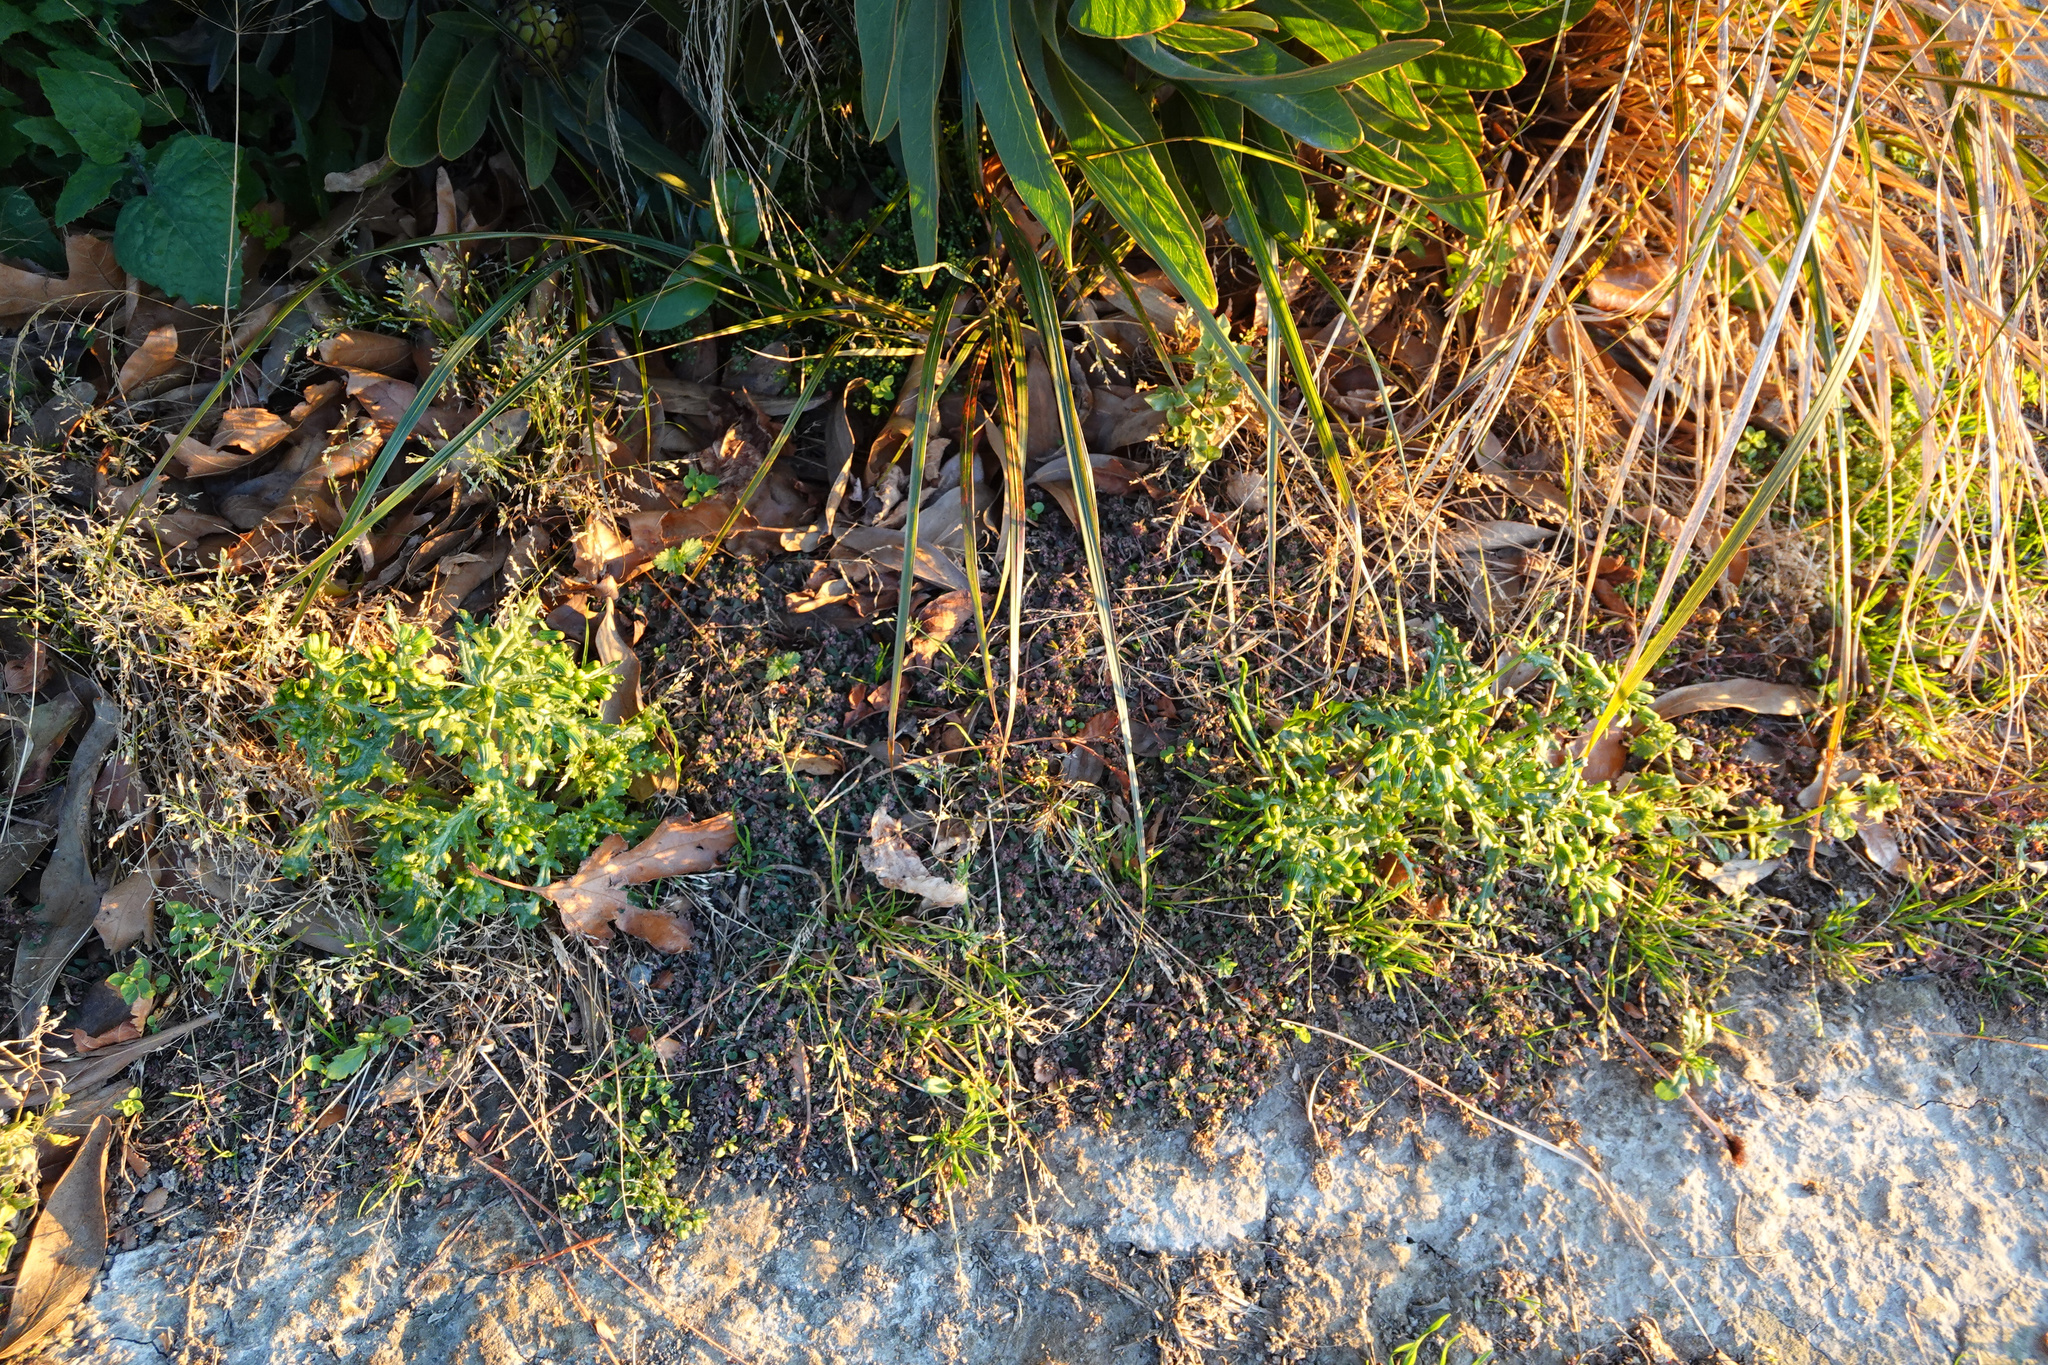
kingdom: Plantae
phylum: Tracheophyta
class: Magnoliopsida
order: Asterales
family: Asteraceae
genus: Senecio
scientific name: Senecio vulgaris
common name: Old-man-in-the-spring
